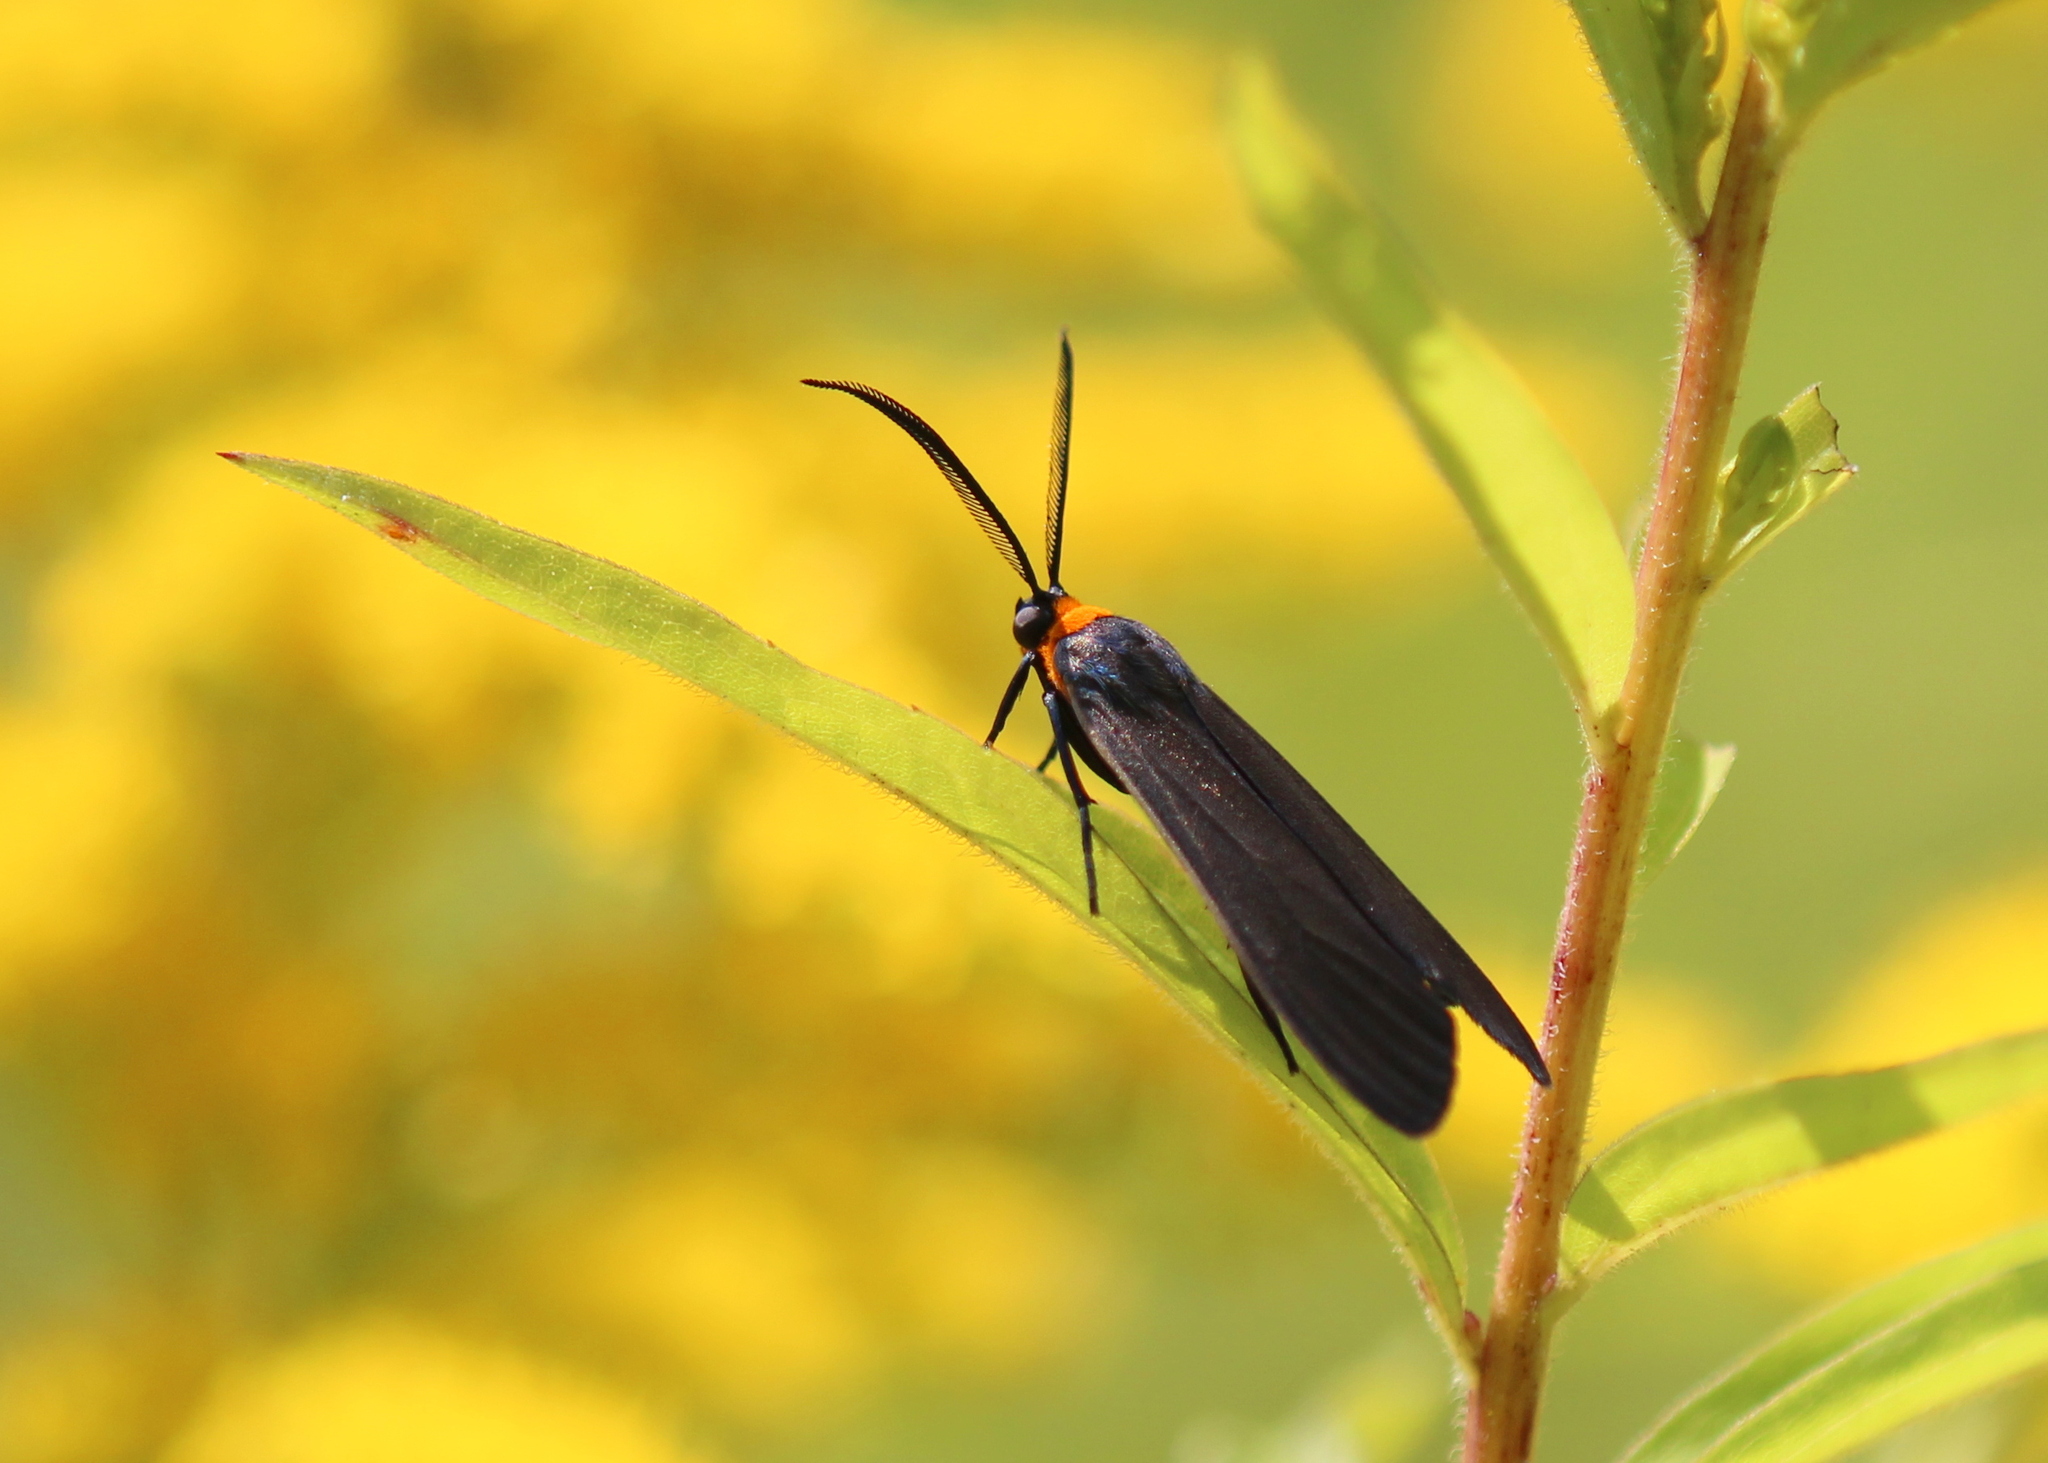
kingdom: Animalia
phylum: Arthropoda
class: Insecta
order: Lepidoptera
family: Erebidae
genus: Cisseps
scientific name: Cisseps fulvicollis
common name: Yellow-collared scape moth
